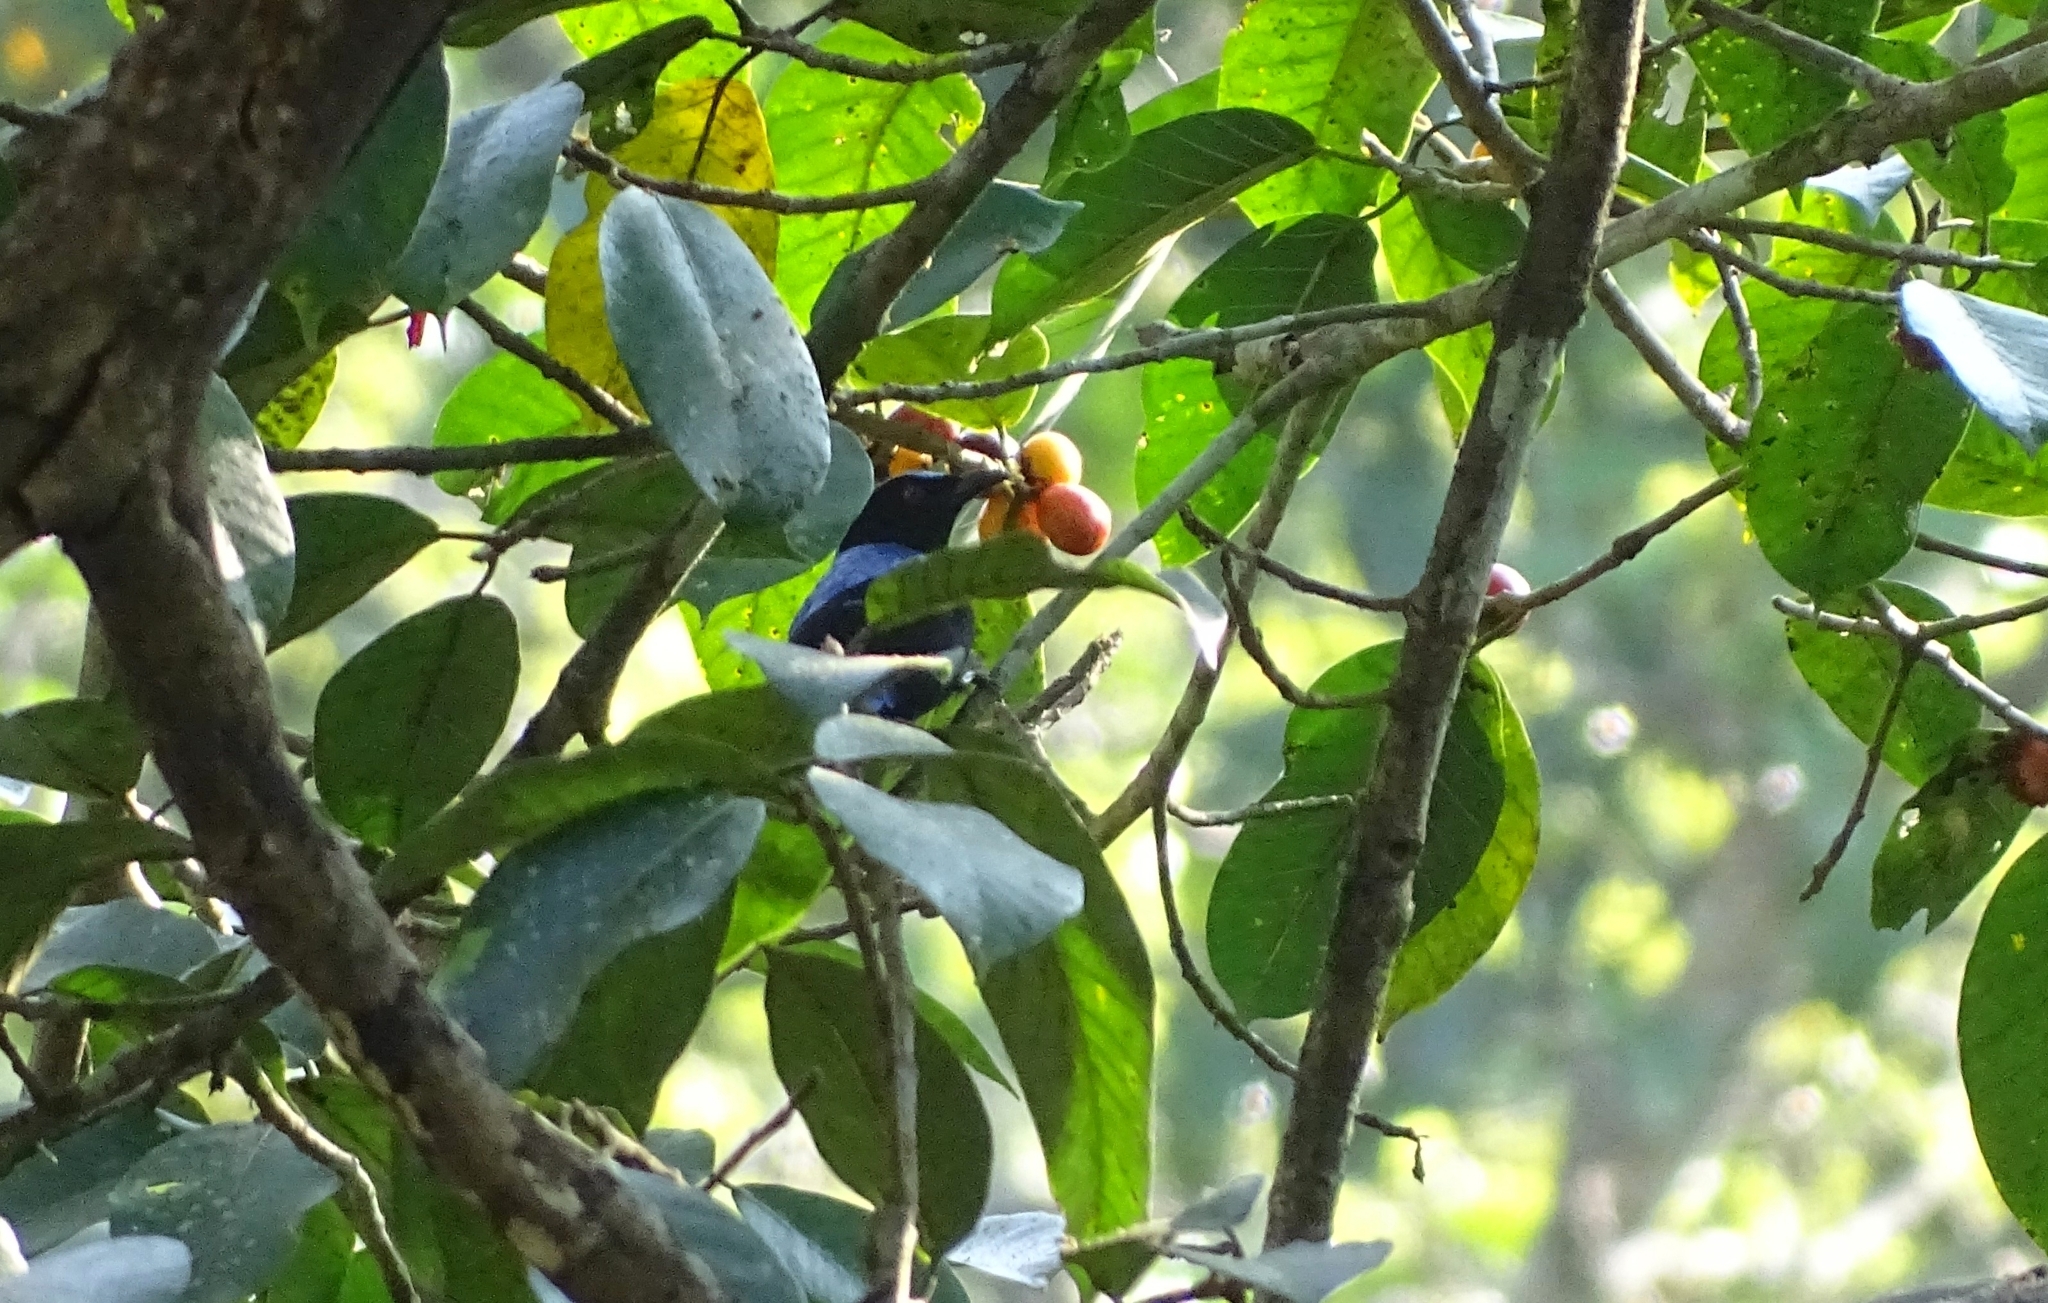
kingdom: Animalia
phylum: Chordata
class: Aves
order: Passeriformes
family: Irenidae
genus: Irena
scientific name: Irena puella
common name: Asian fairy-bluebird
